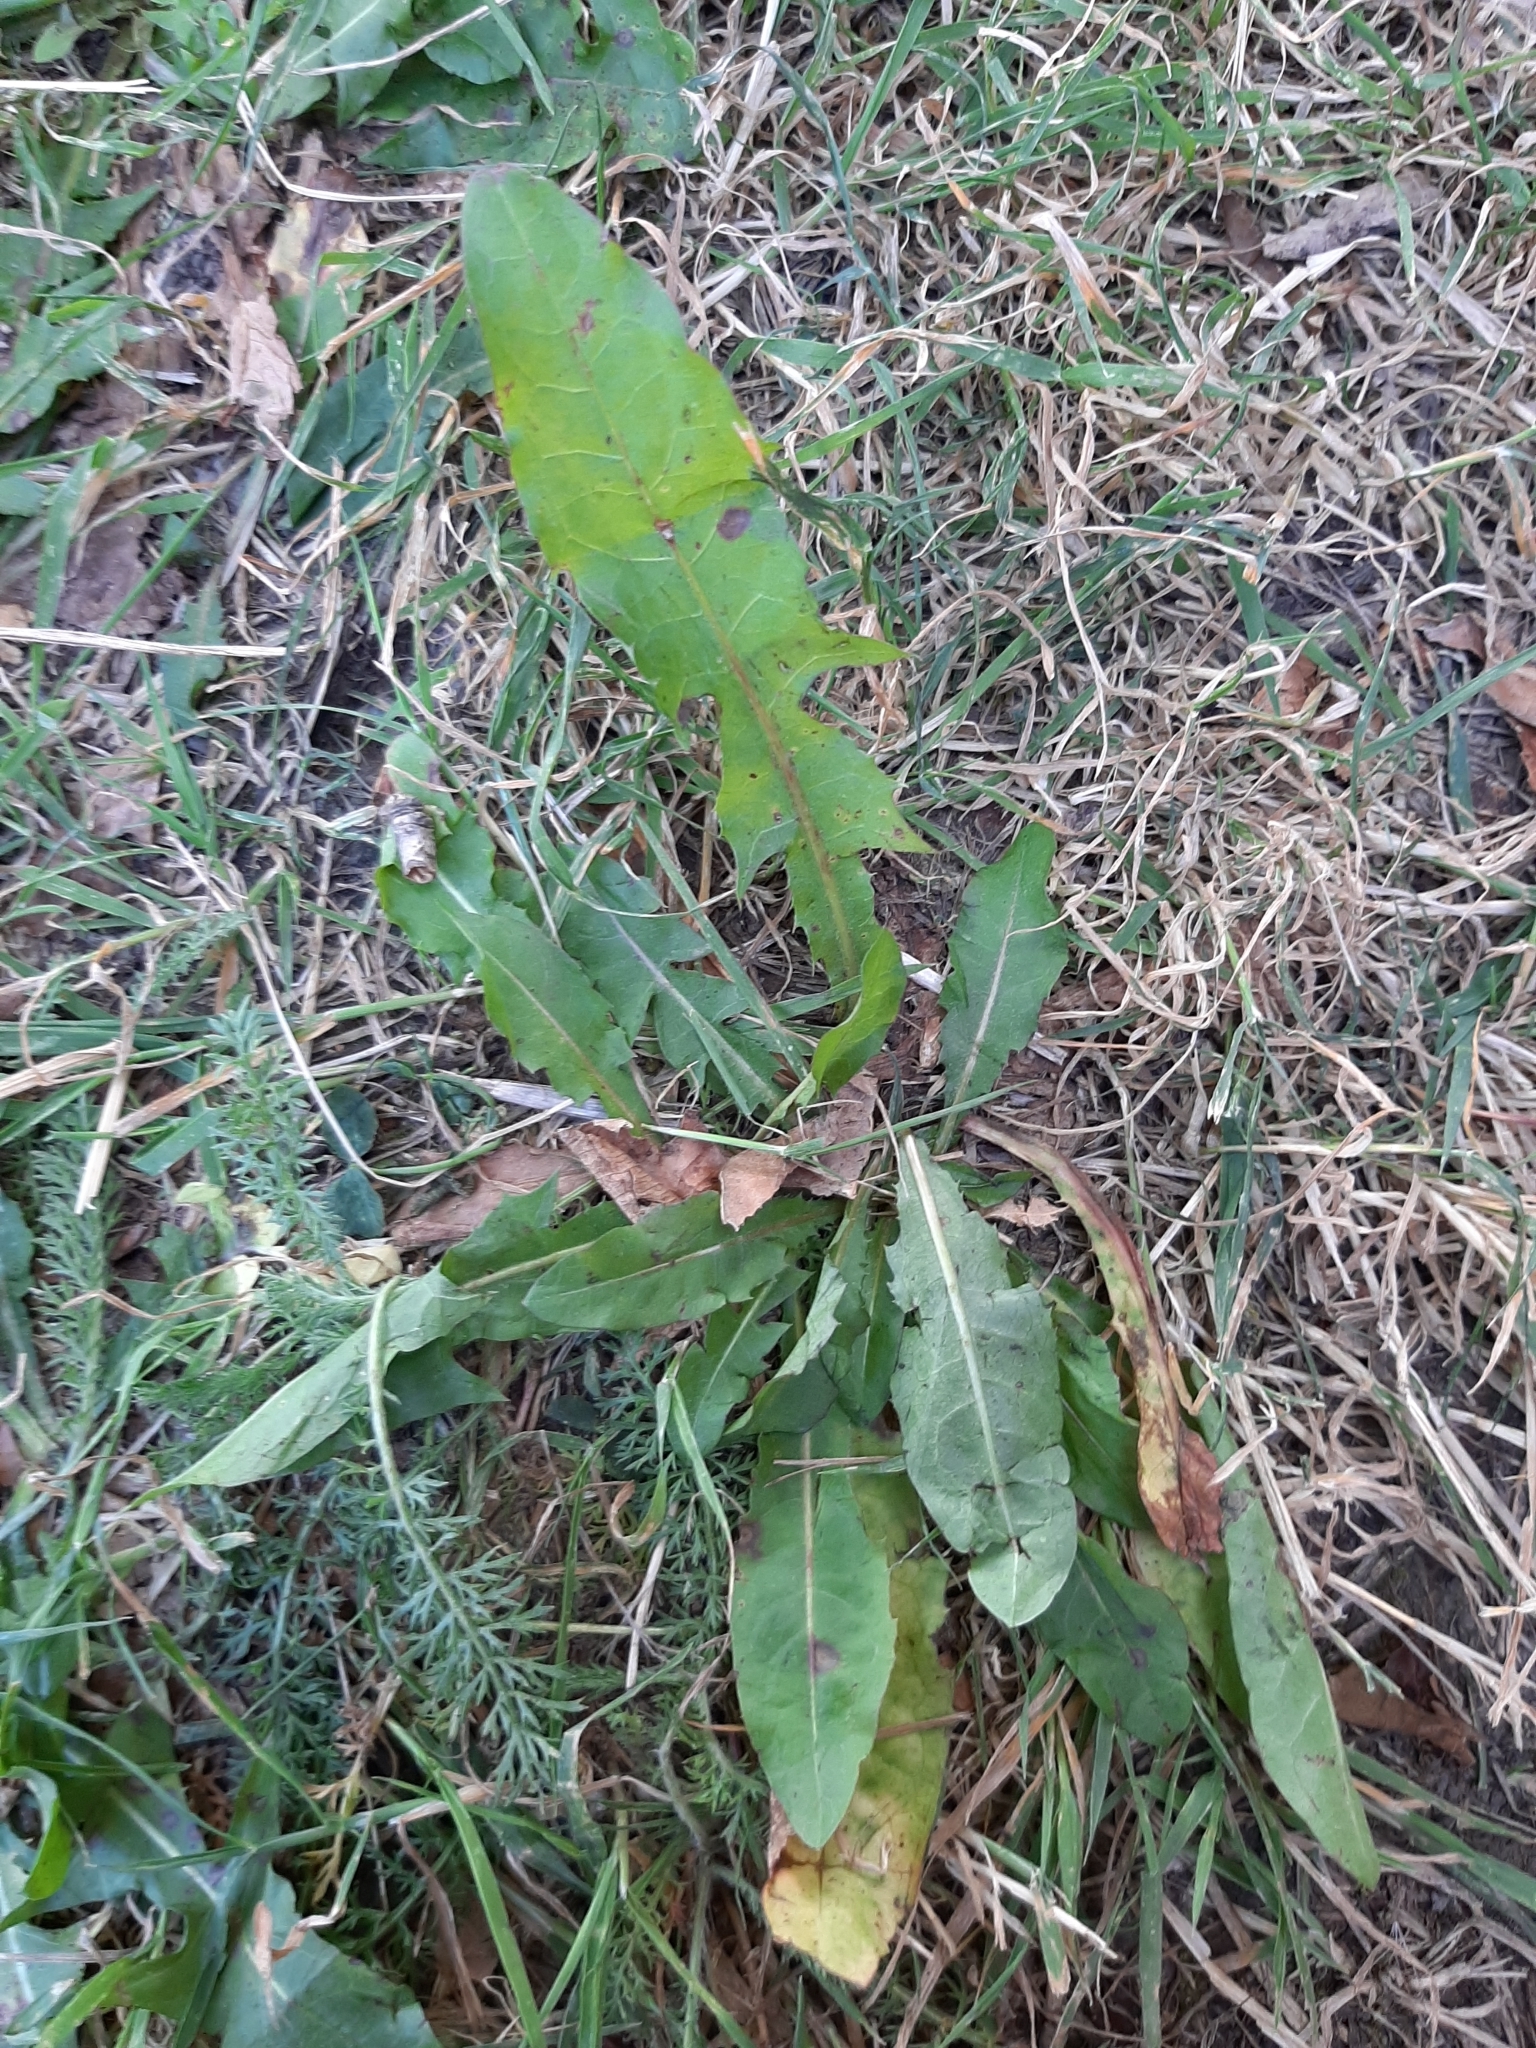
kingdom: Plantae
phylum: Tracheophyta
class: Magnoliopsida
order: Asterales
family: Asteraceae
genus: Taraxacum
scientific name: Taraxacum officinale
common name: Common dandelion
